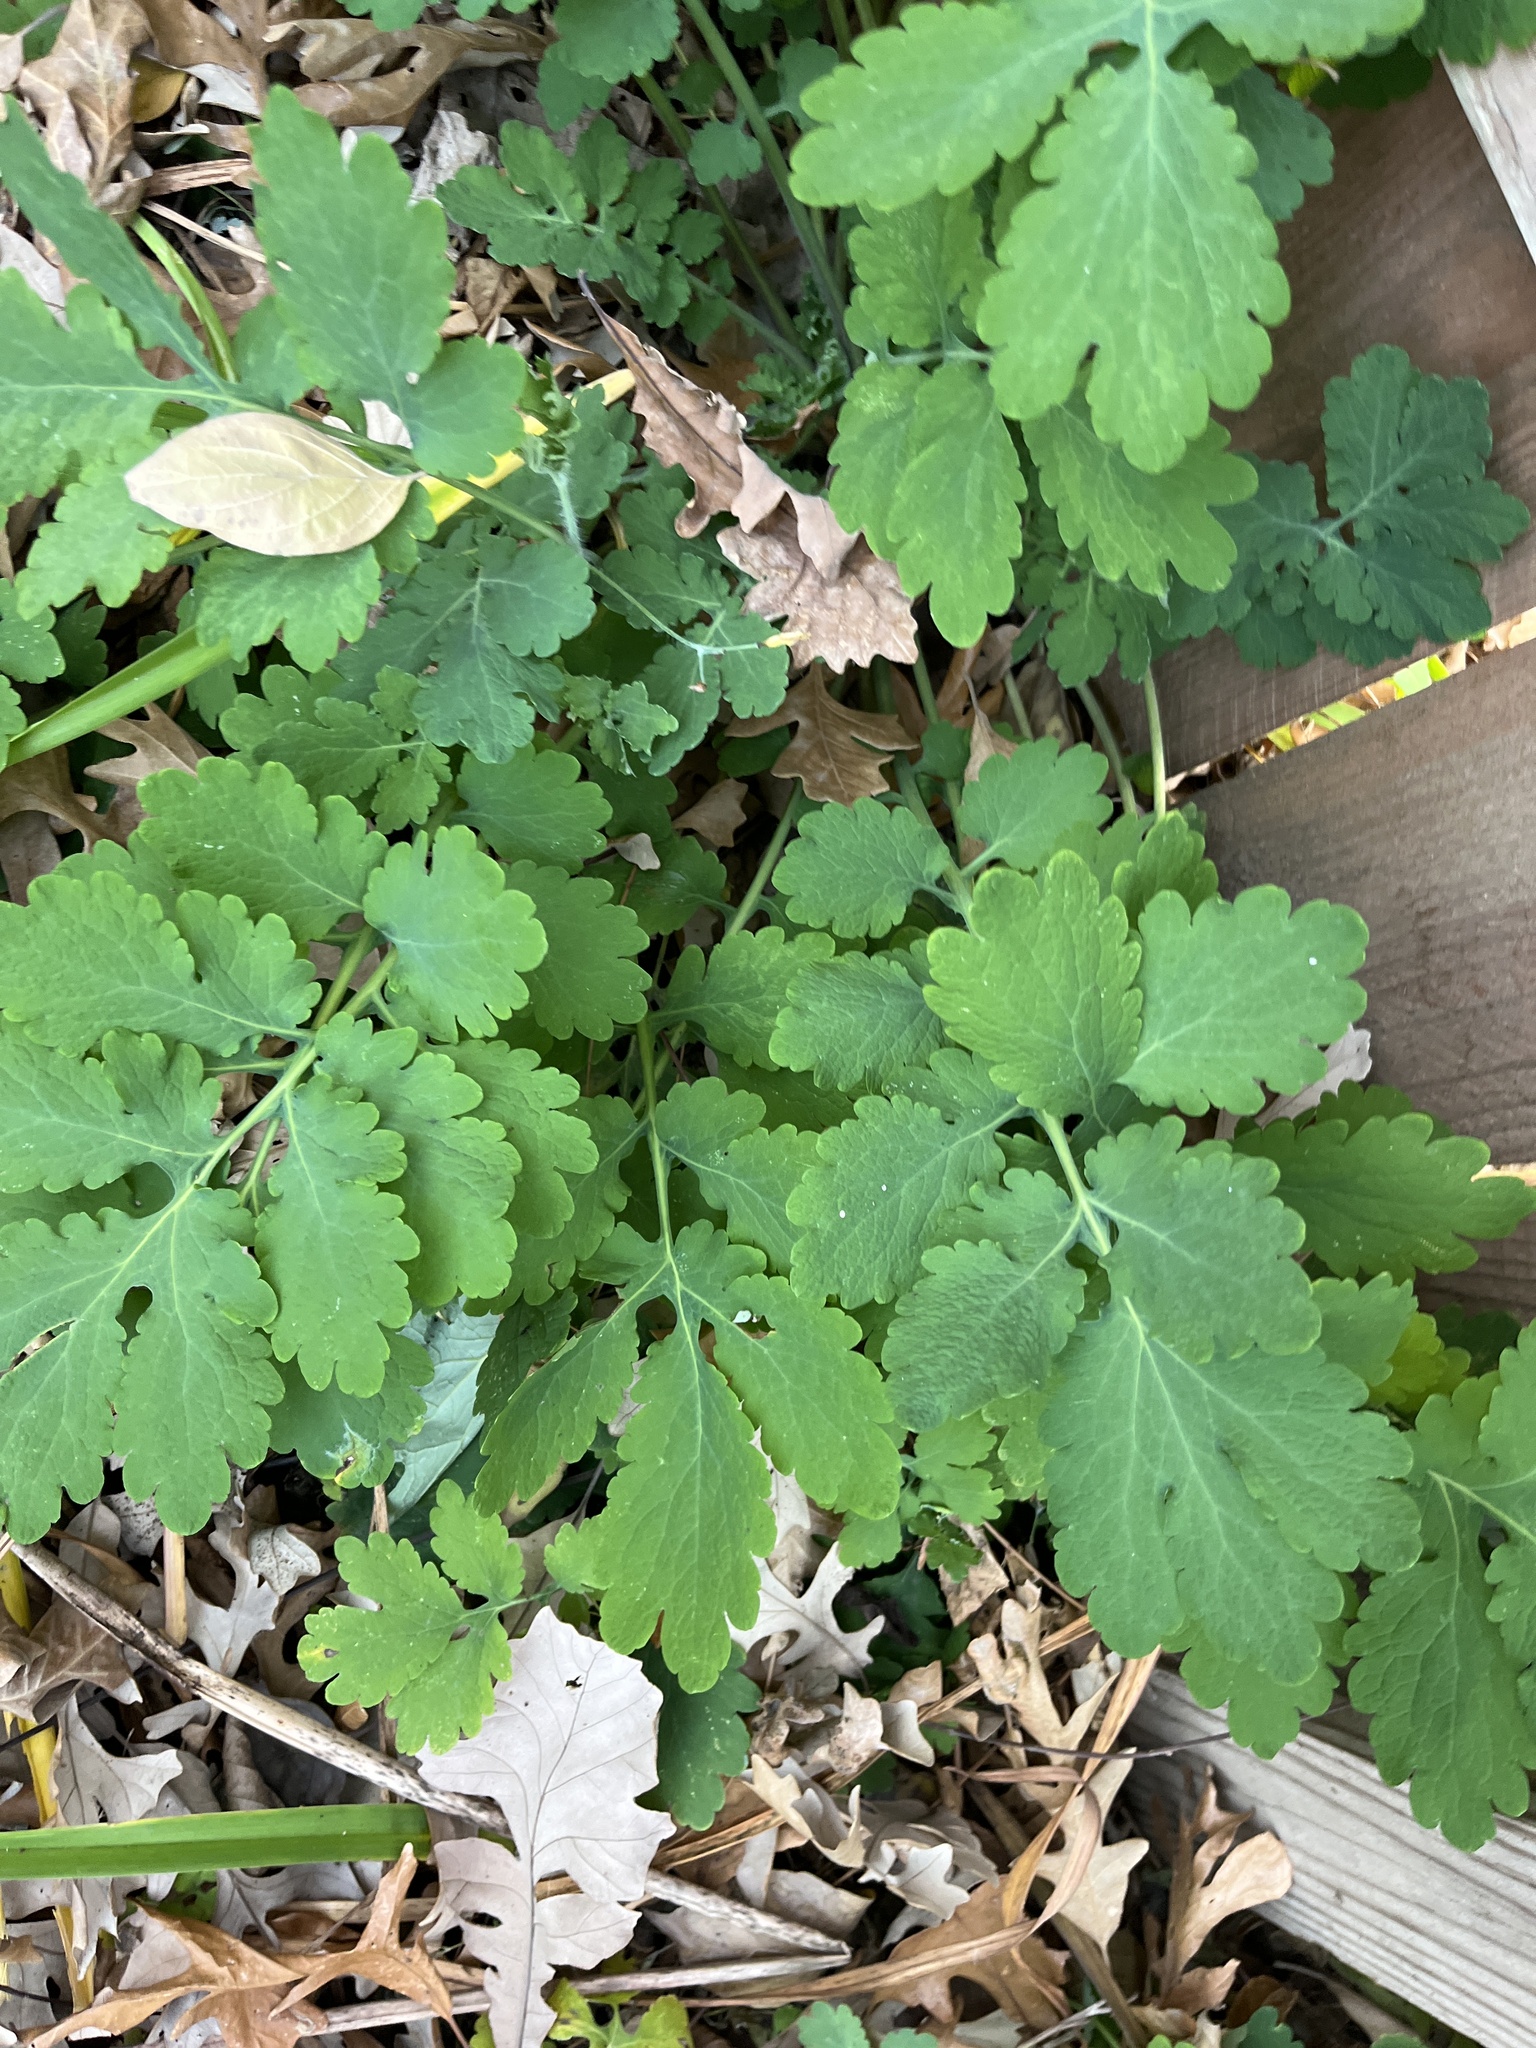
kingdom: Plantae
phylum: Tracheophyta
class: Magnoliopsida
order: Ranunculales
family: Papaveraceae
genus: Chelidonium
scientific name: Chelidonium majus
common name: Greater celandine
